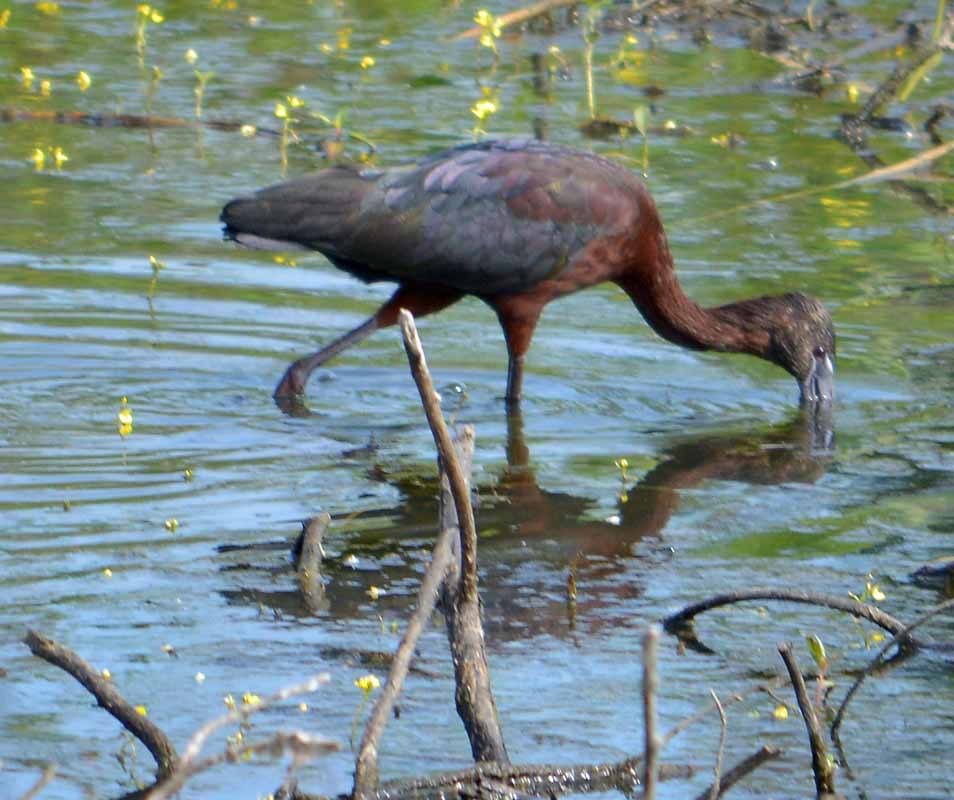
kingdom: Animalia
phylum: Chordata
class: Aves
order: Pelecaniformes
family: Threskiornithidae
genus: Plegadis
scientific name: Plegadis falcinellus
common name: Glossy ibis
